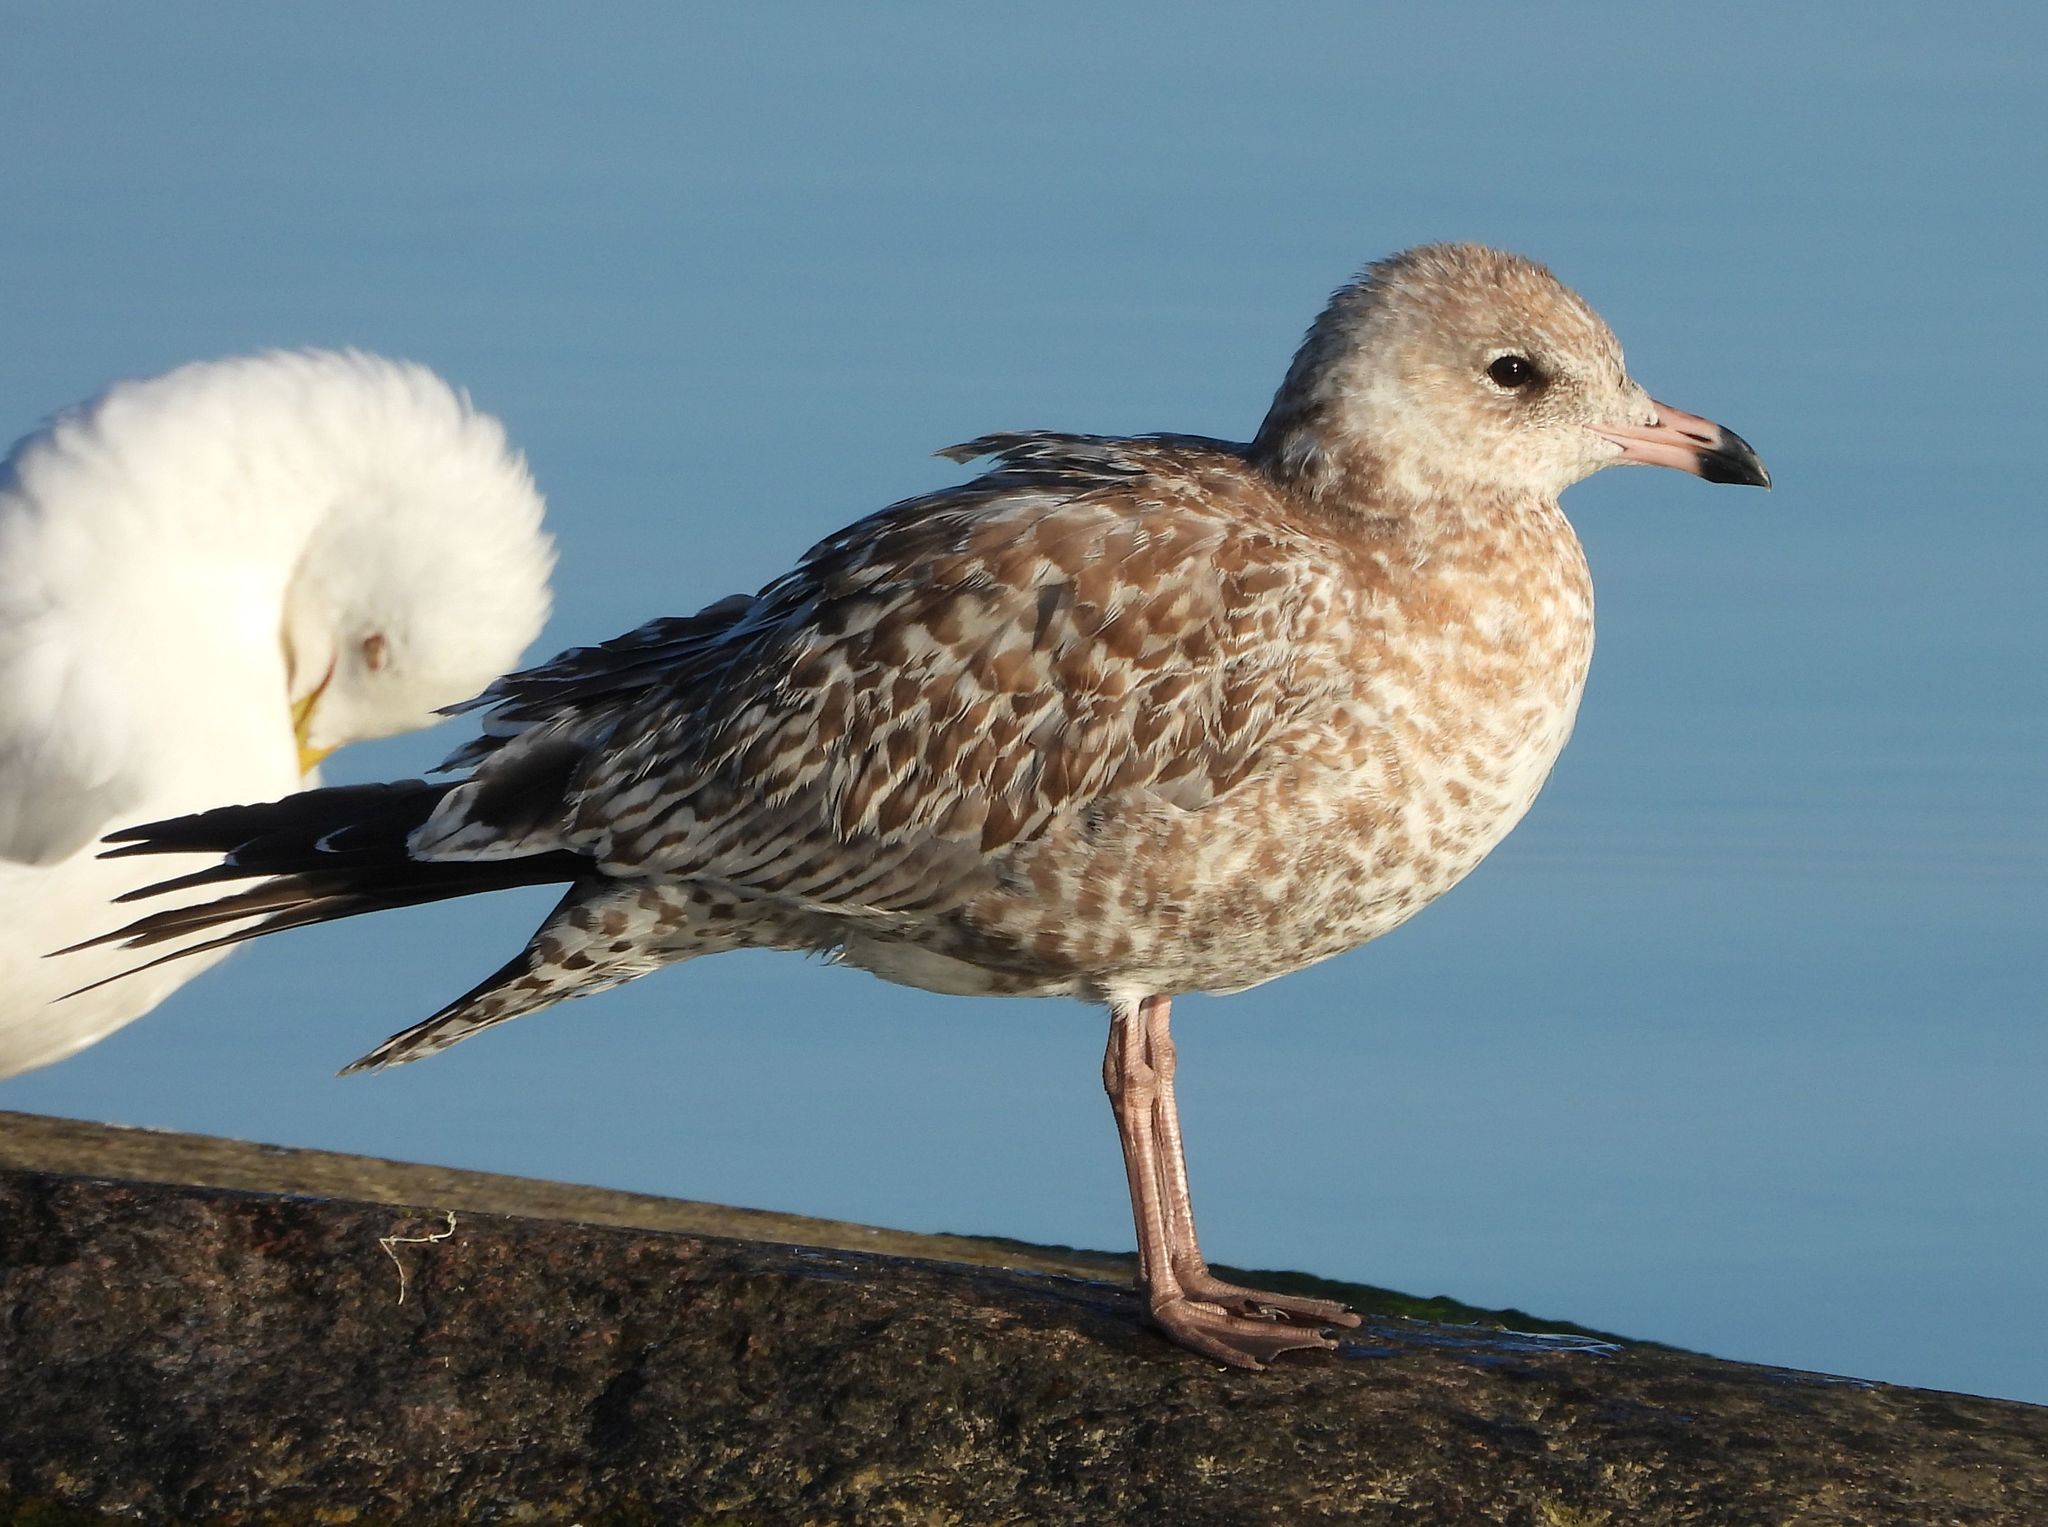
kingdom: Animalia
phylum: Chordata
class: Aves
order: Charadriiformes
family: Laridae
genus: Larus
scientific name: Larus delawarensis
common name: Ring-billed gull
